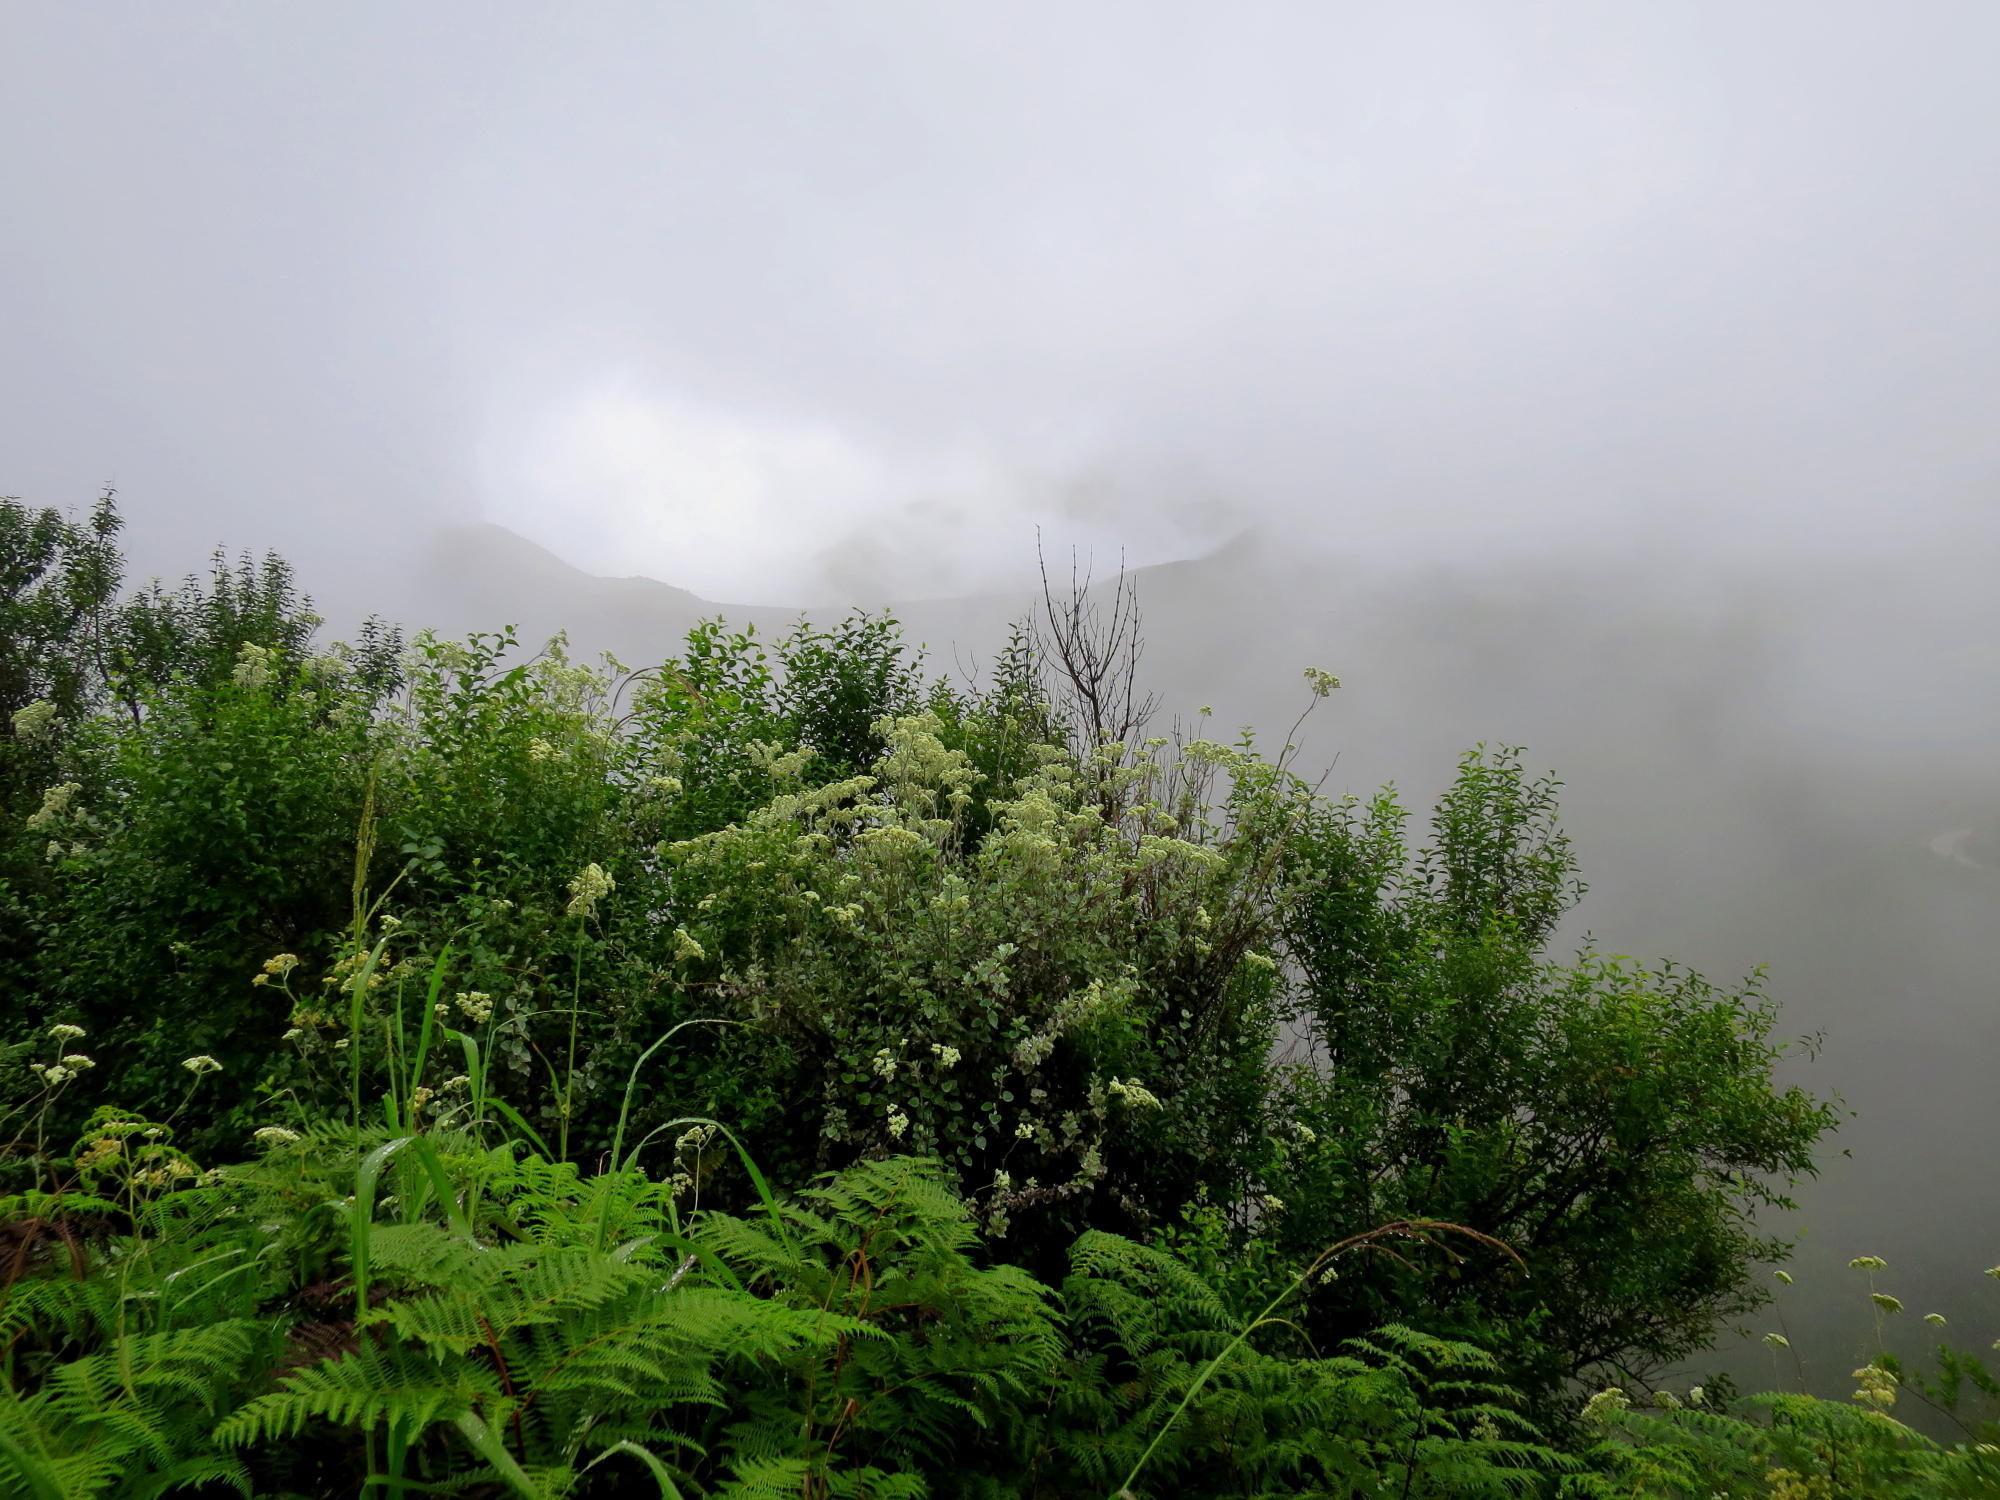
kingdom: Plantae
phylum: Tracheophyta
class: Polypodiopsida
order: Polypodiales
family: Dennstaedtiaceae
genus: Pteridium
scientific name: Pteridium aquilinum
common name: Bracken
